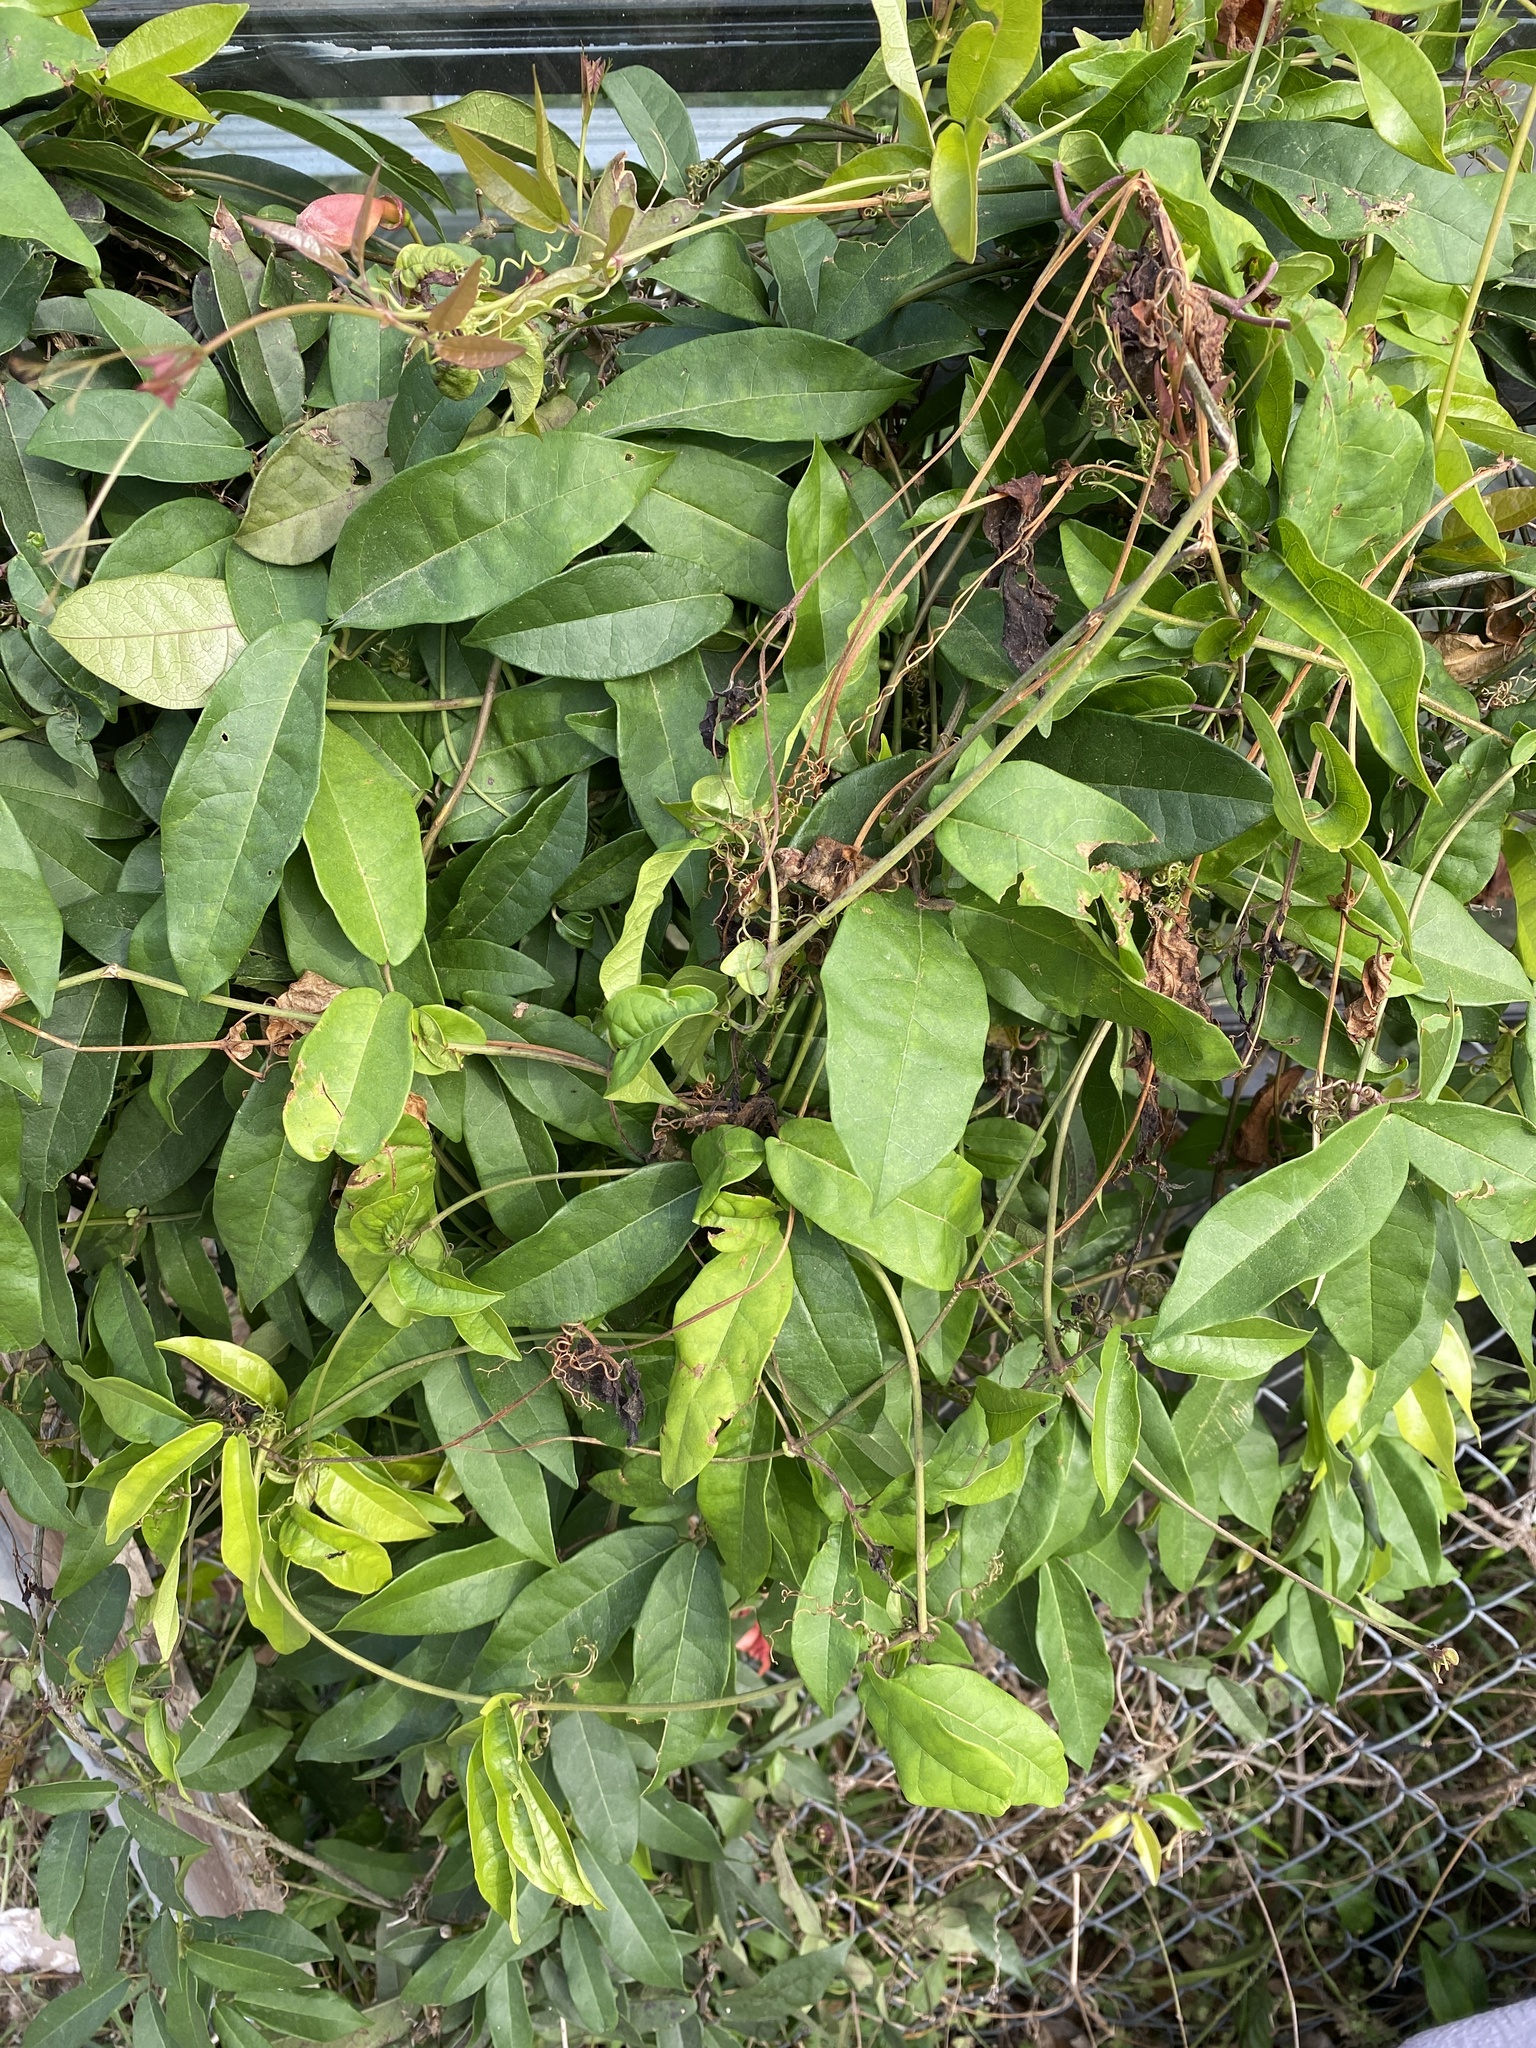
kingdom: Plantae
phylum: Tracheophyta
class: Magnoliopsida
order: Lamiales
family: Bignoniaceae
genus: Bignonia
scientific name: Bignonia capreolata
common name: Crossvine
